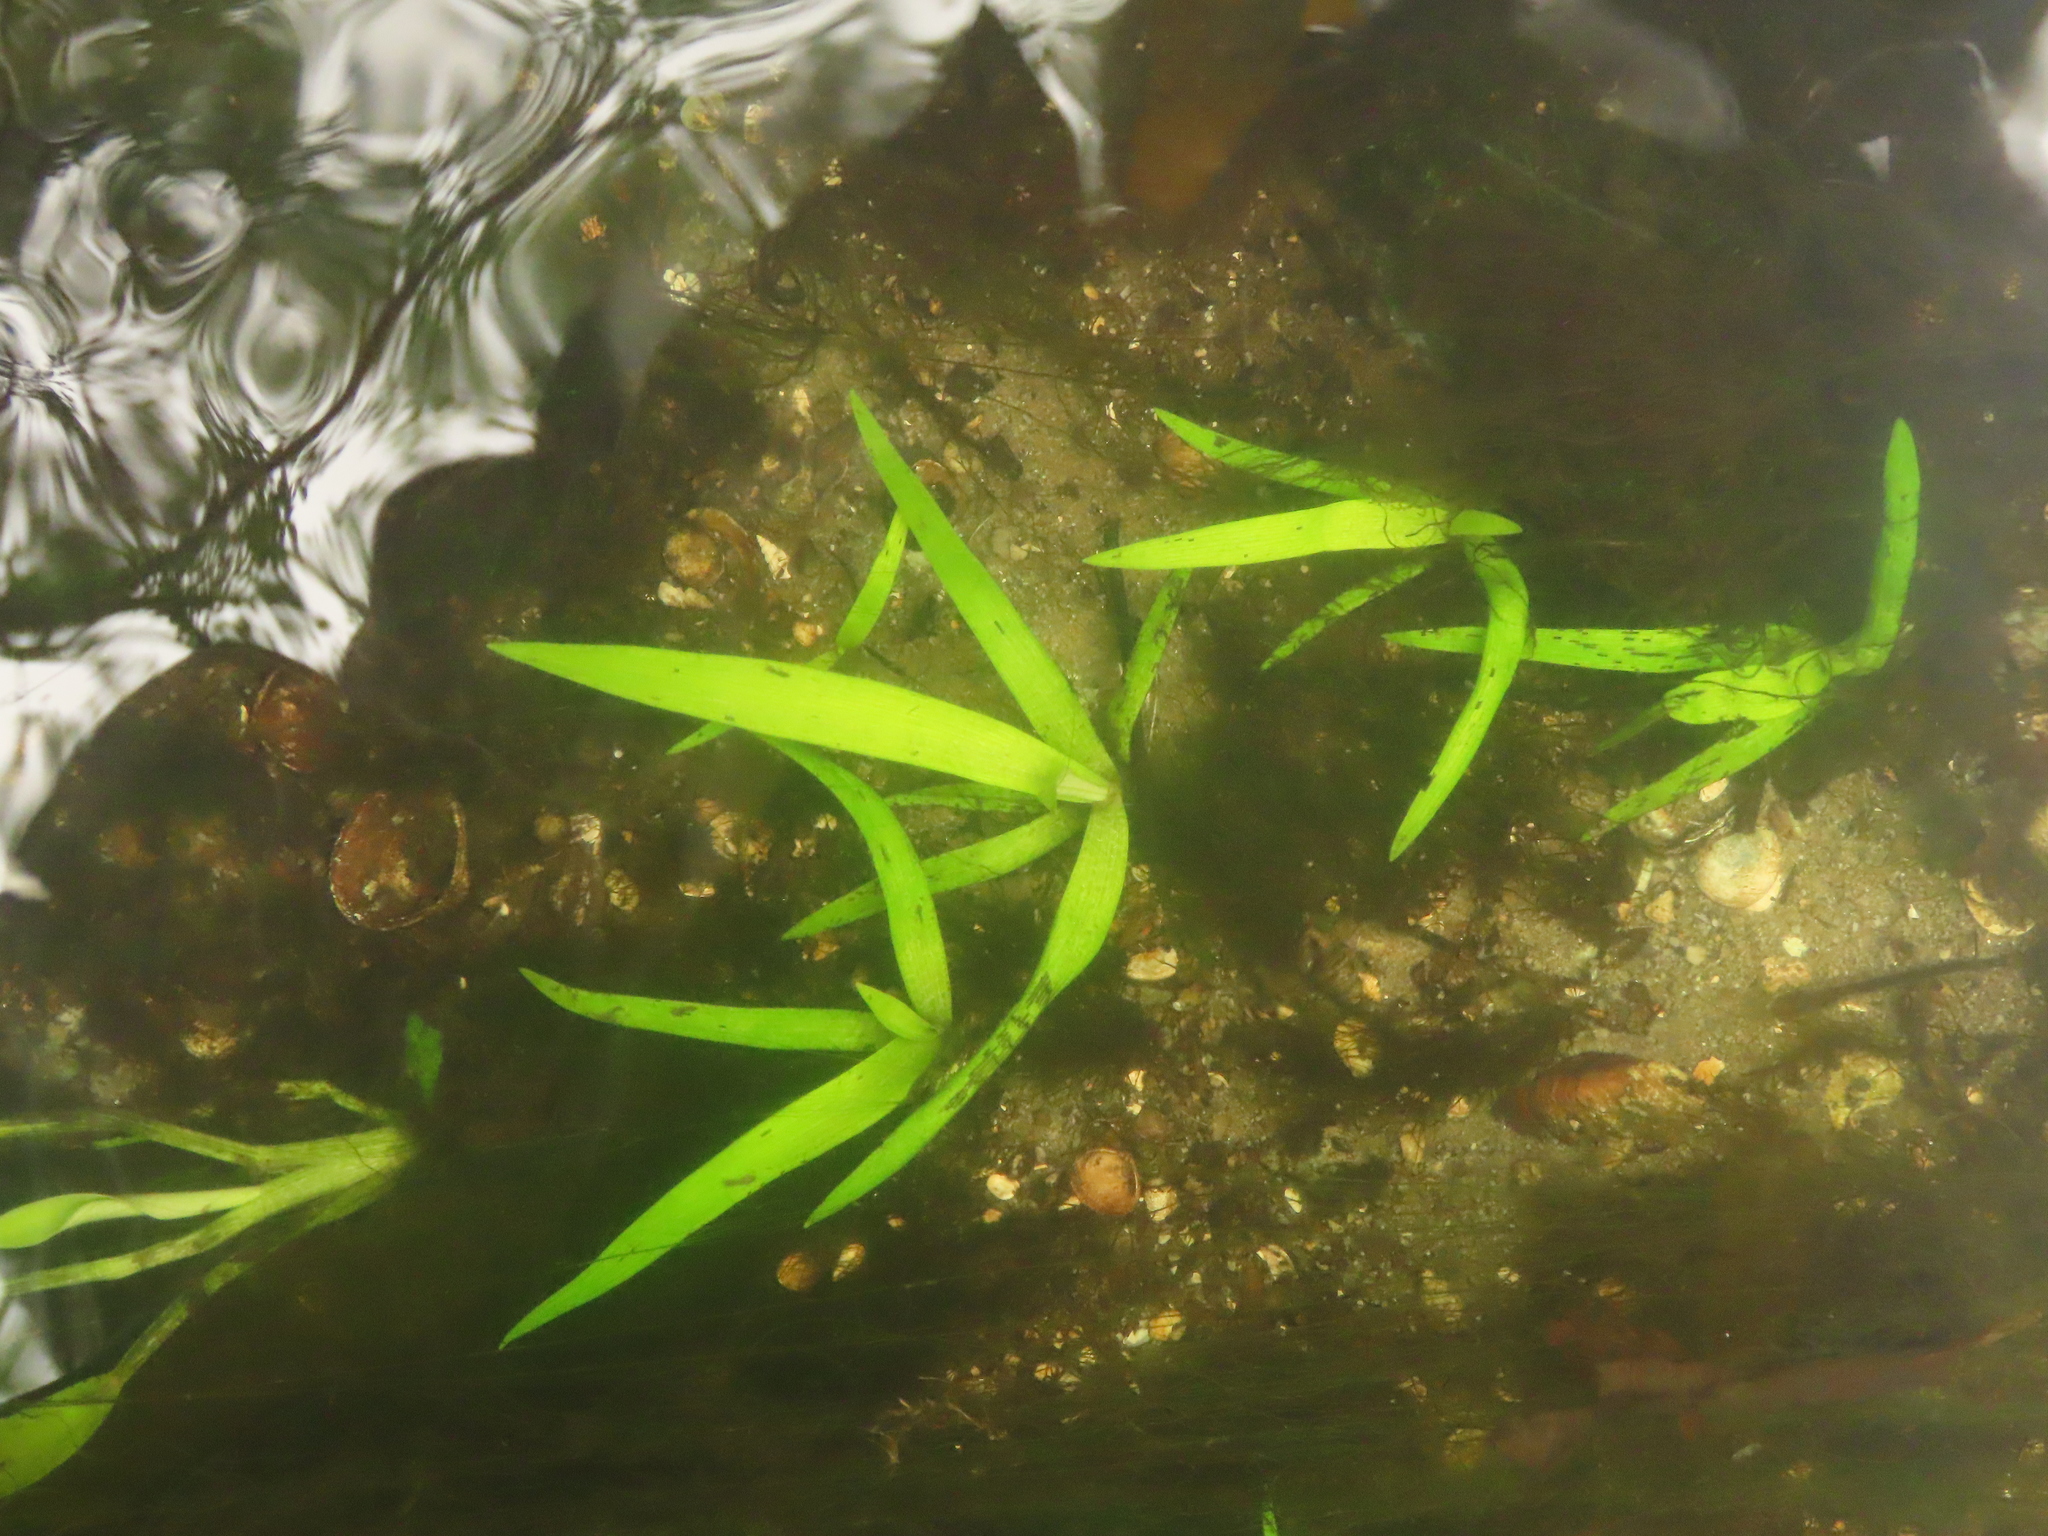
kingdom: Plantae
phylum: Tracheophyta
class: Liliopsida
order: Commelinales
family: Pontederiaceae
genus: Pontederia
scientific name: Pontederia vaginalis
